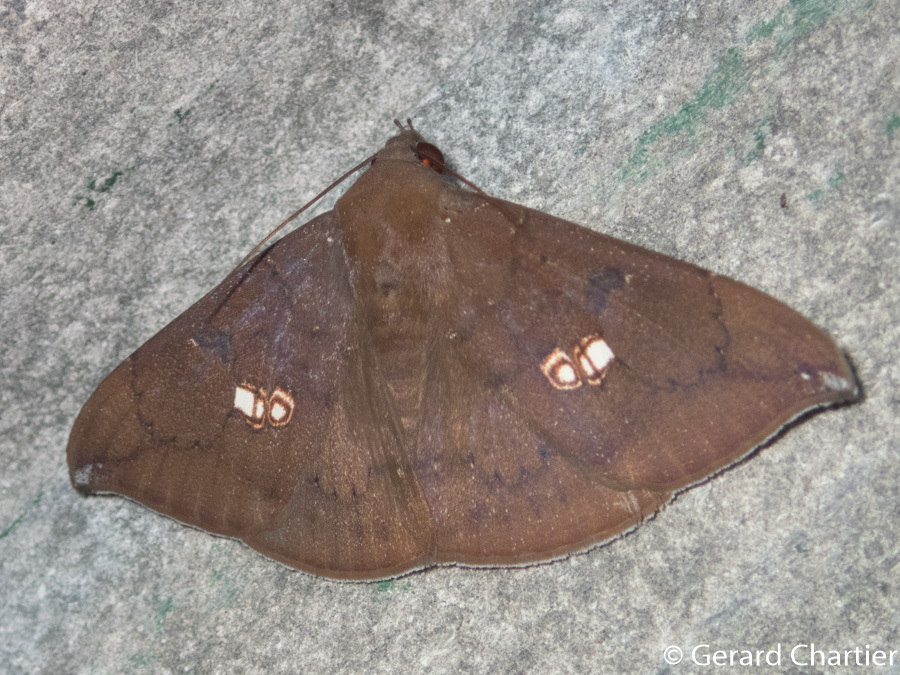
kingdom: Animalia
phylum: Arthropoda
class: Insecta
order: Lepidoptera
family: Erebidae
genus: Platyja
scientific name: Platyja umminia
